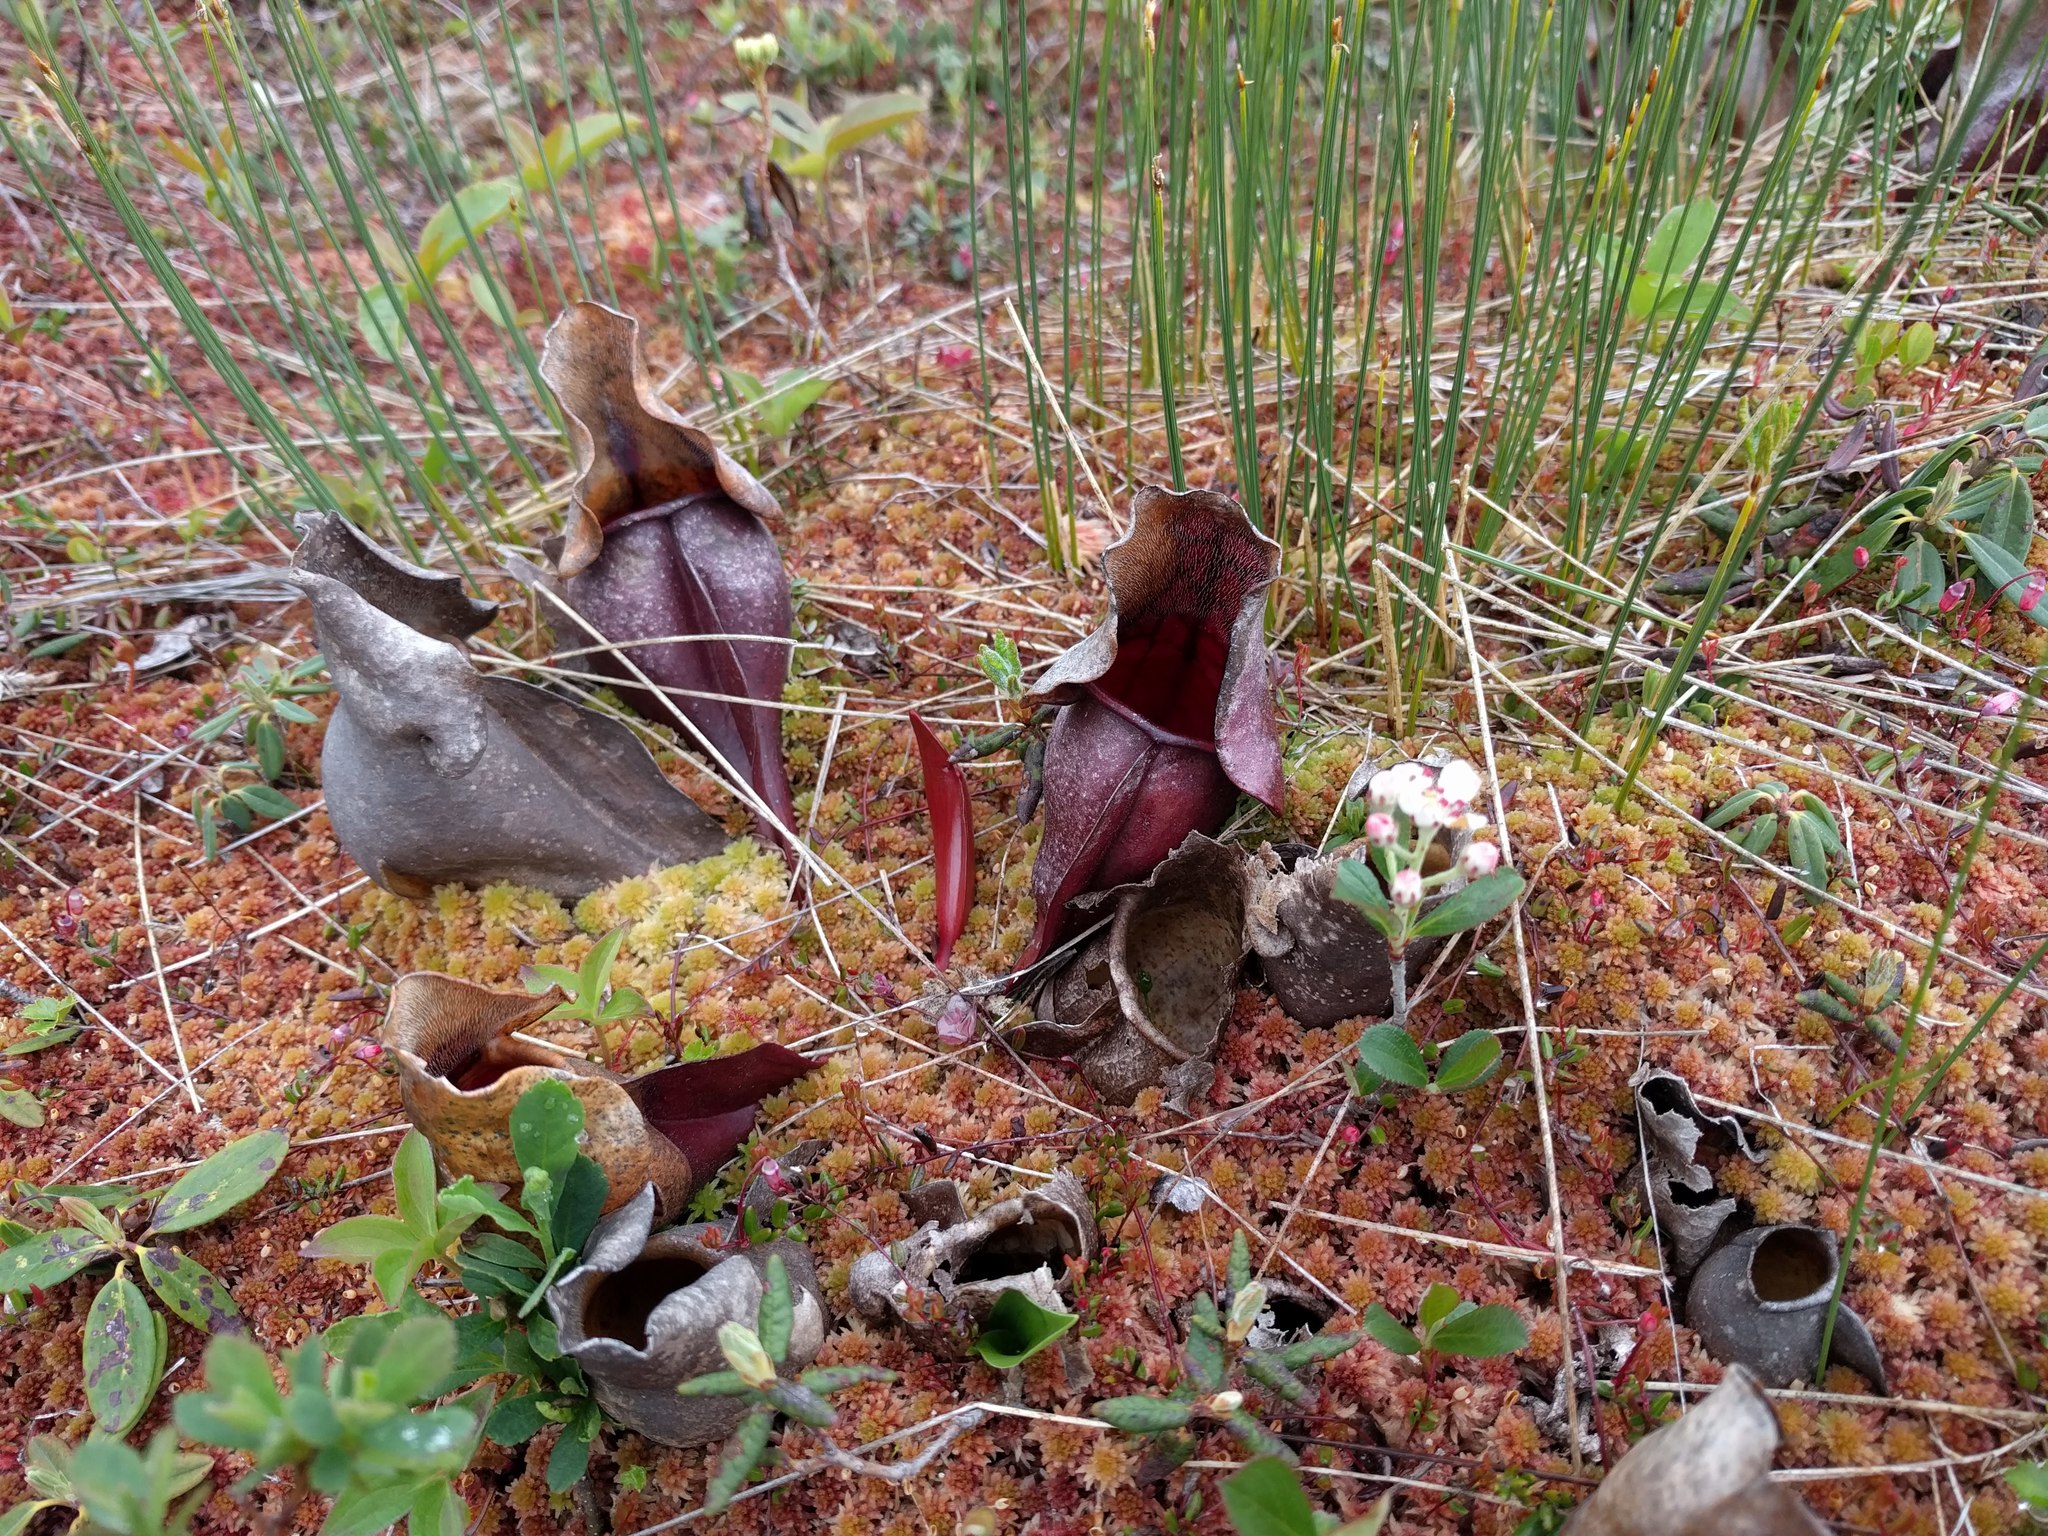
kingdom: Plantae
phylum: Tracheophyta
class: Magnoliopsida
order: Ericales
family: Sarraceniaceae
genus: Sarracenia
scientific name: Sarracenia purpurea
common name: Pitcherplant
